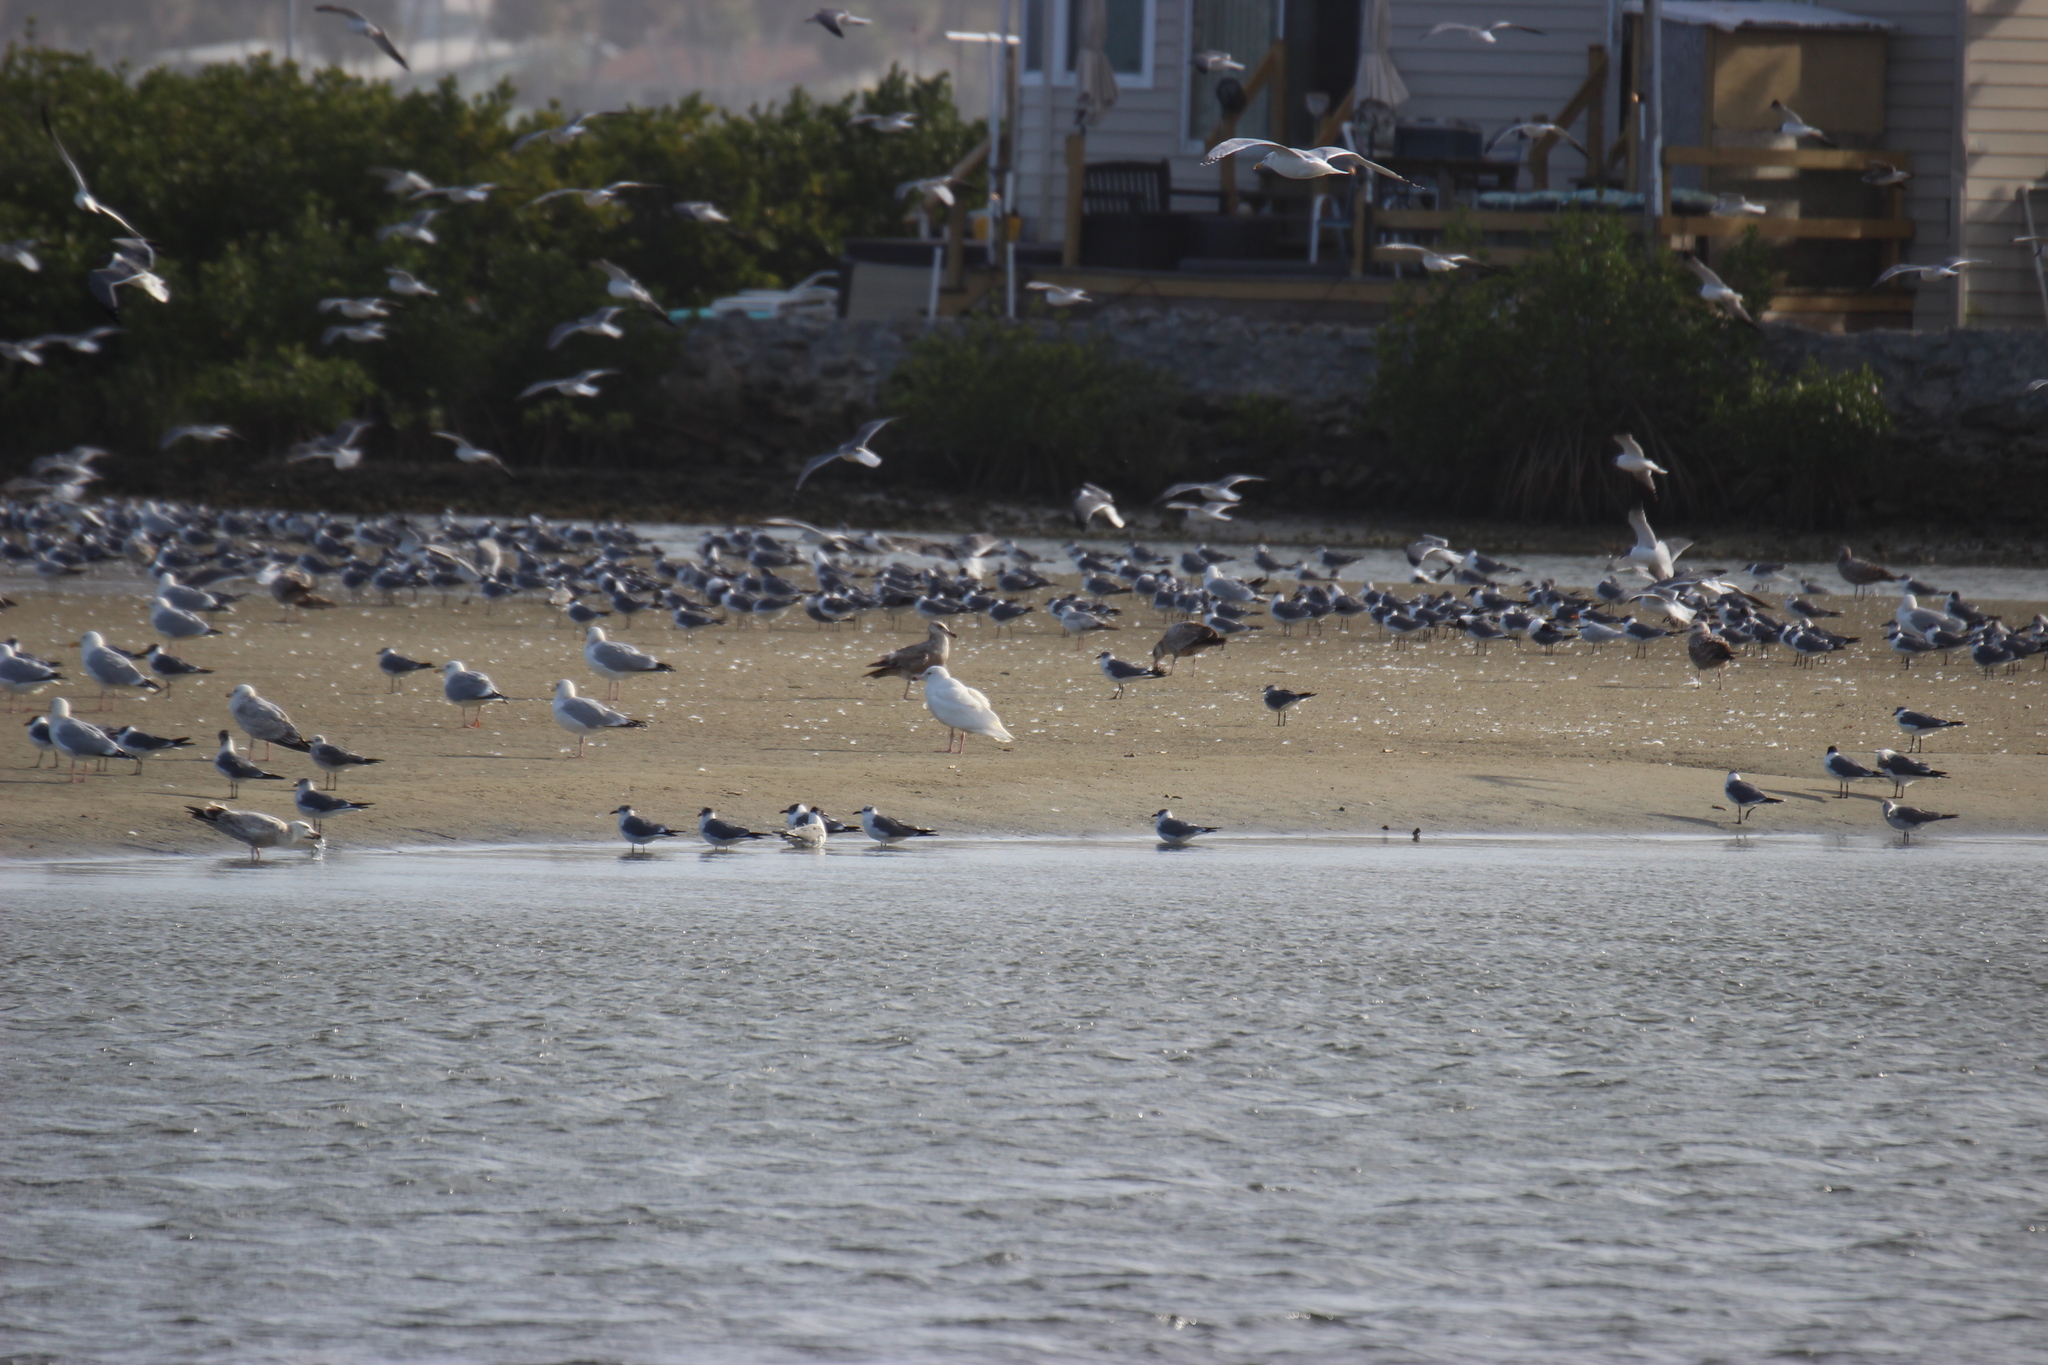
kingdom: Animalia
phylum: Chordata
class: Aves
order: Charadriiformes
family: Laridae
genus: Larus
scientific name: Larus hyperboreus
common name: Glaucous gull
